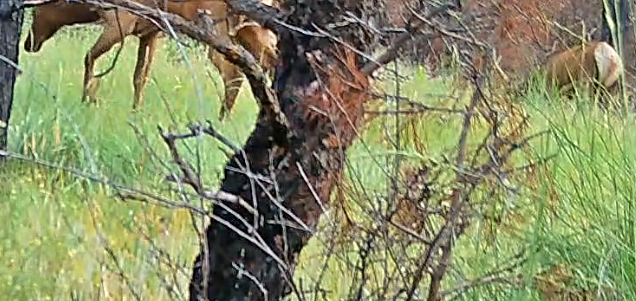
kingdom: Animalia
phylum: Chordata
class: Mammalia
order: Artiodactyla
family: Cervidae
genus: Cervus
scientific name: Cervus elaphus
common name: Red deer
